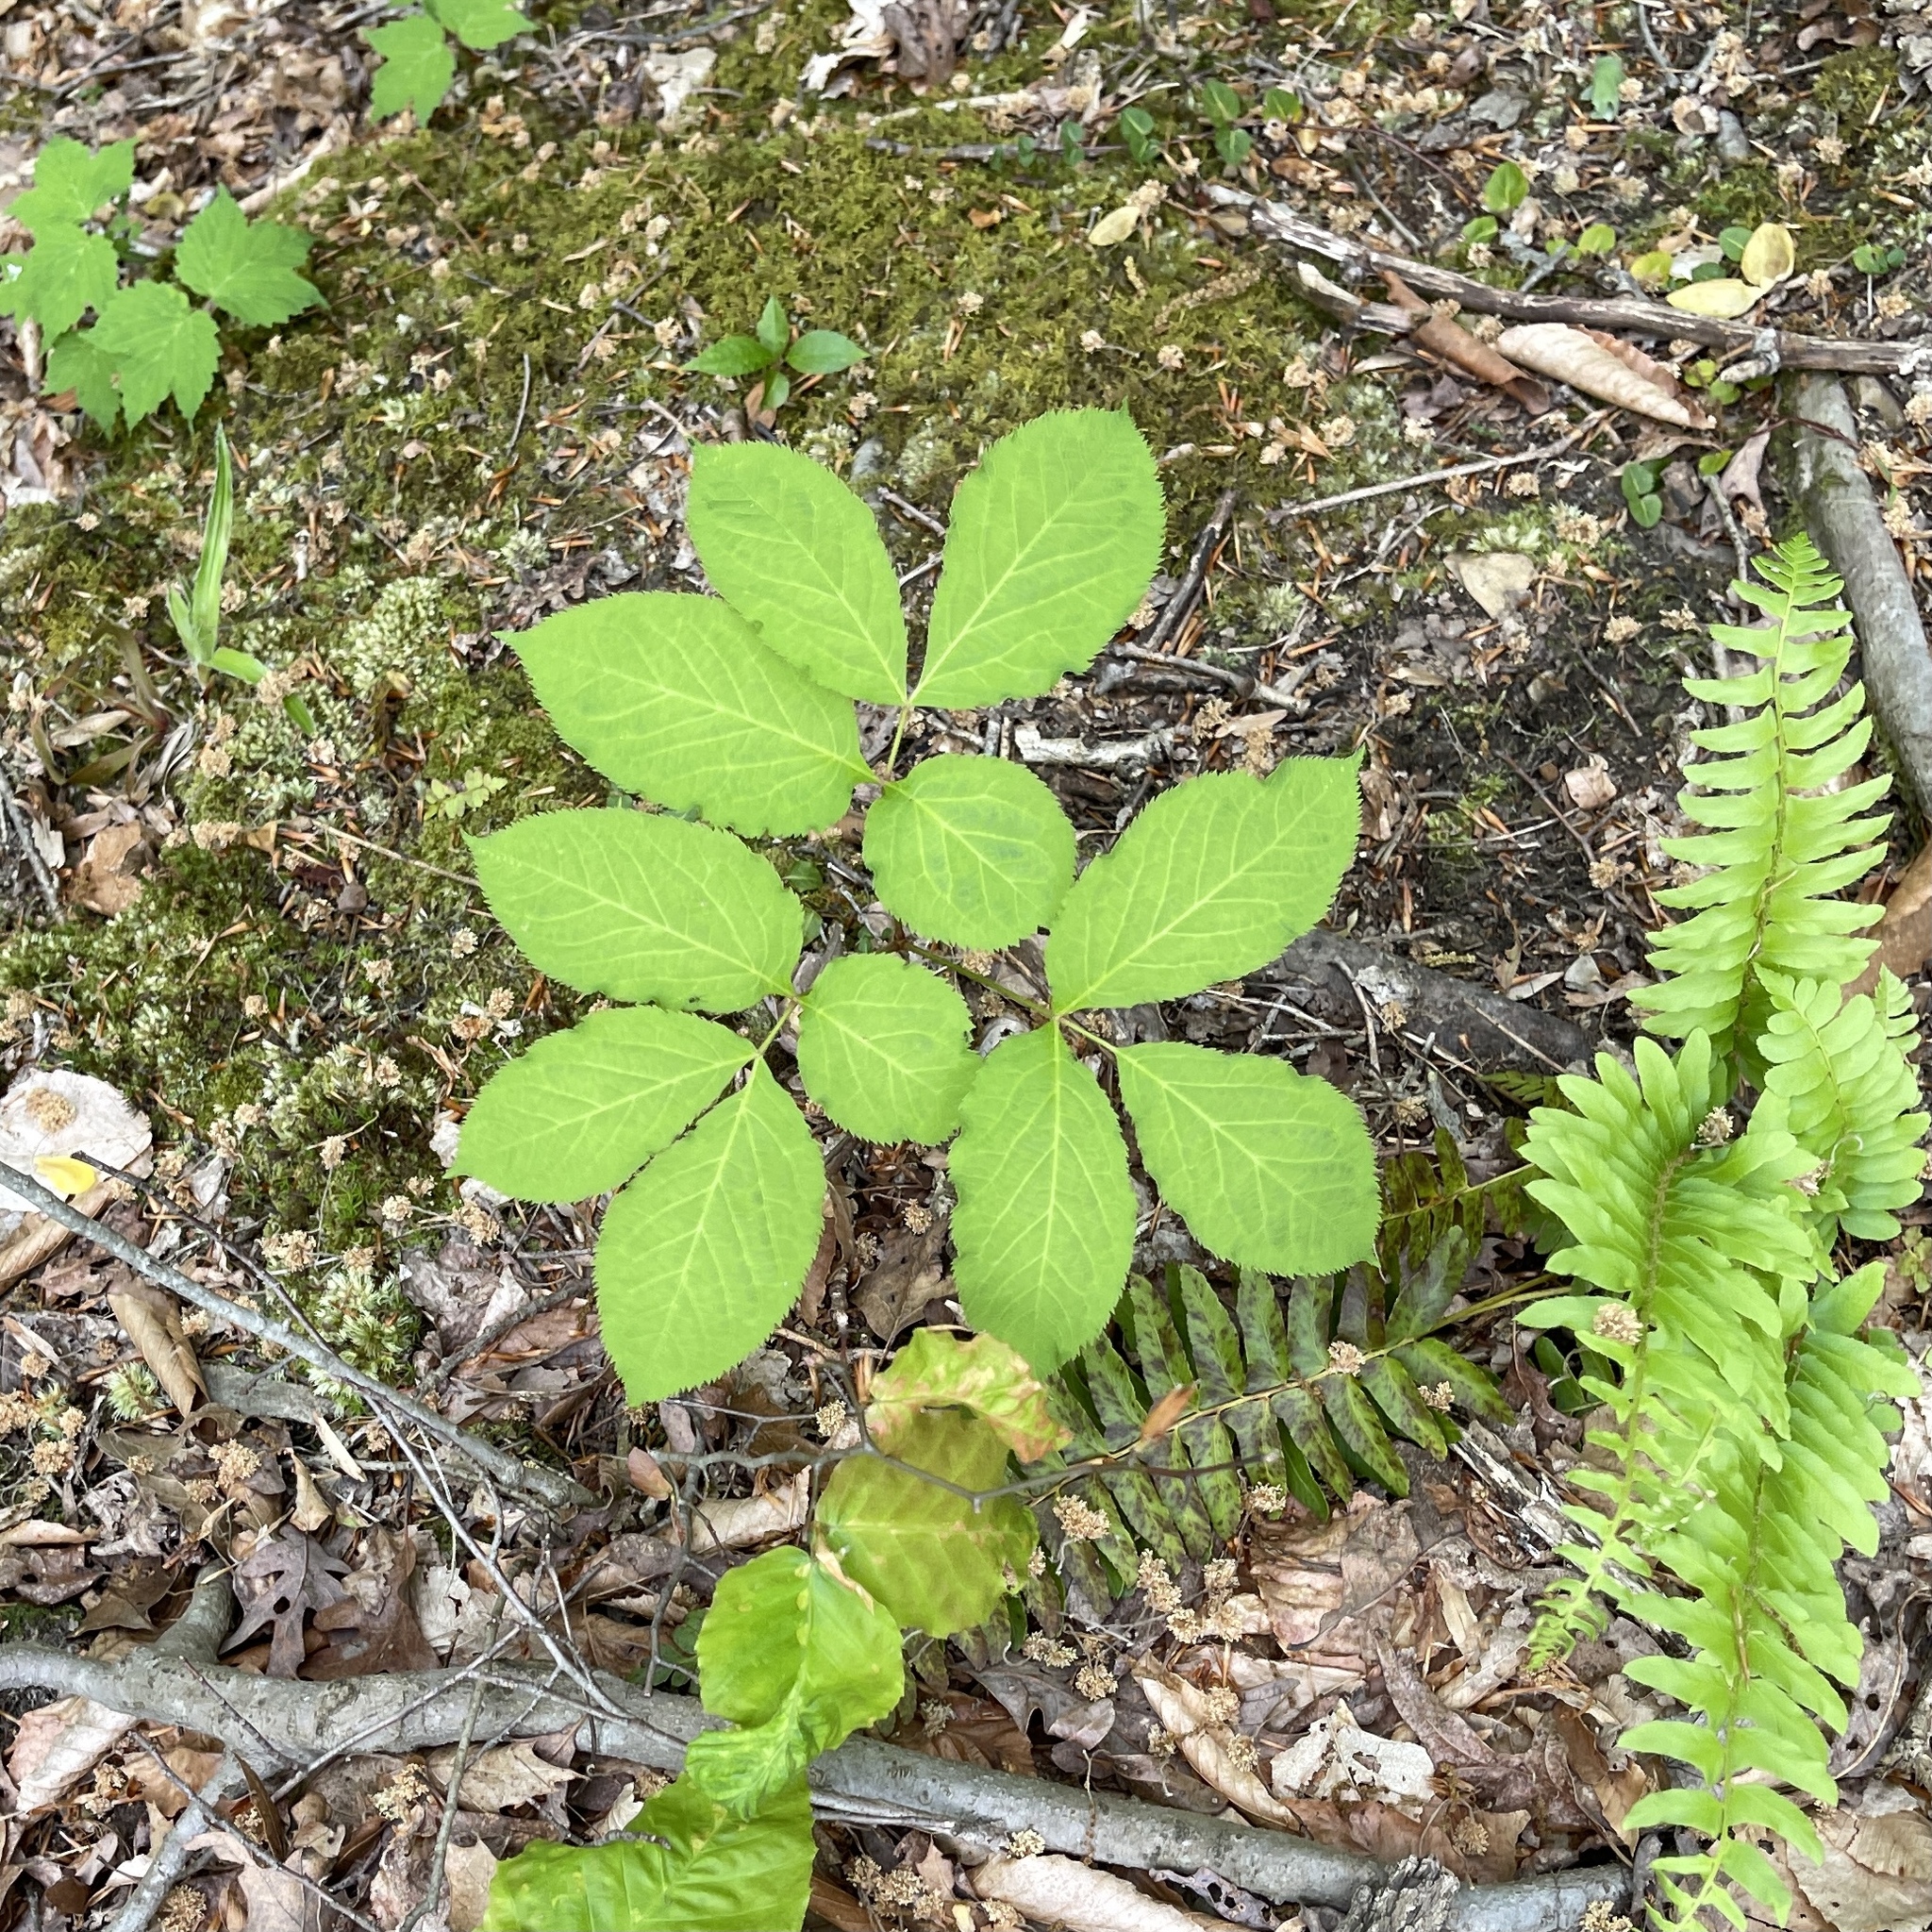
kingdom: Plantae
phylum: Tracheophyta
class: Magnoliopsida
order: Apiales
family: Araliaceae
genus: Aralia
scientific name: Aralia nudicaulis
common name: Wild sarsaparilla
